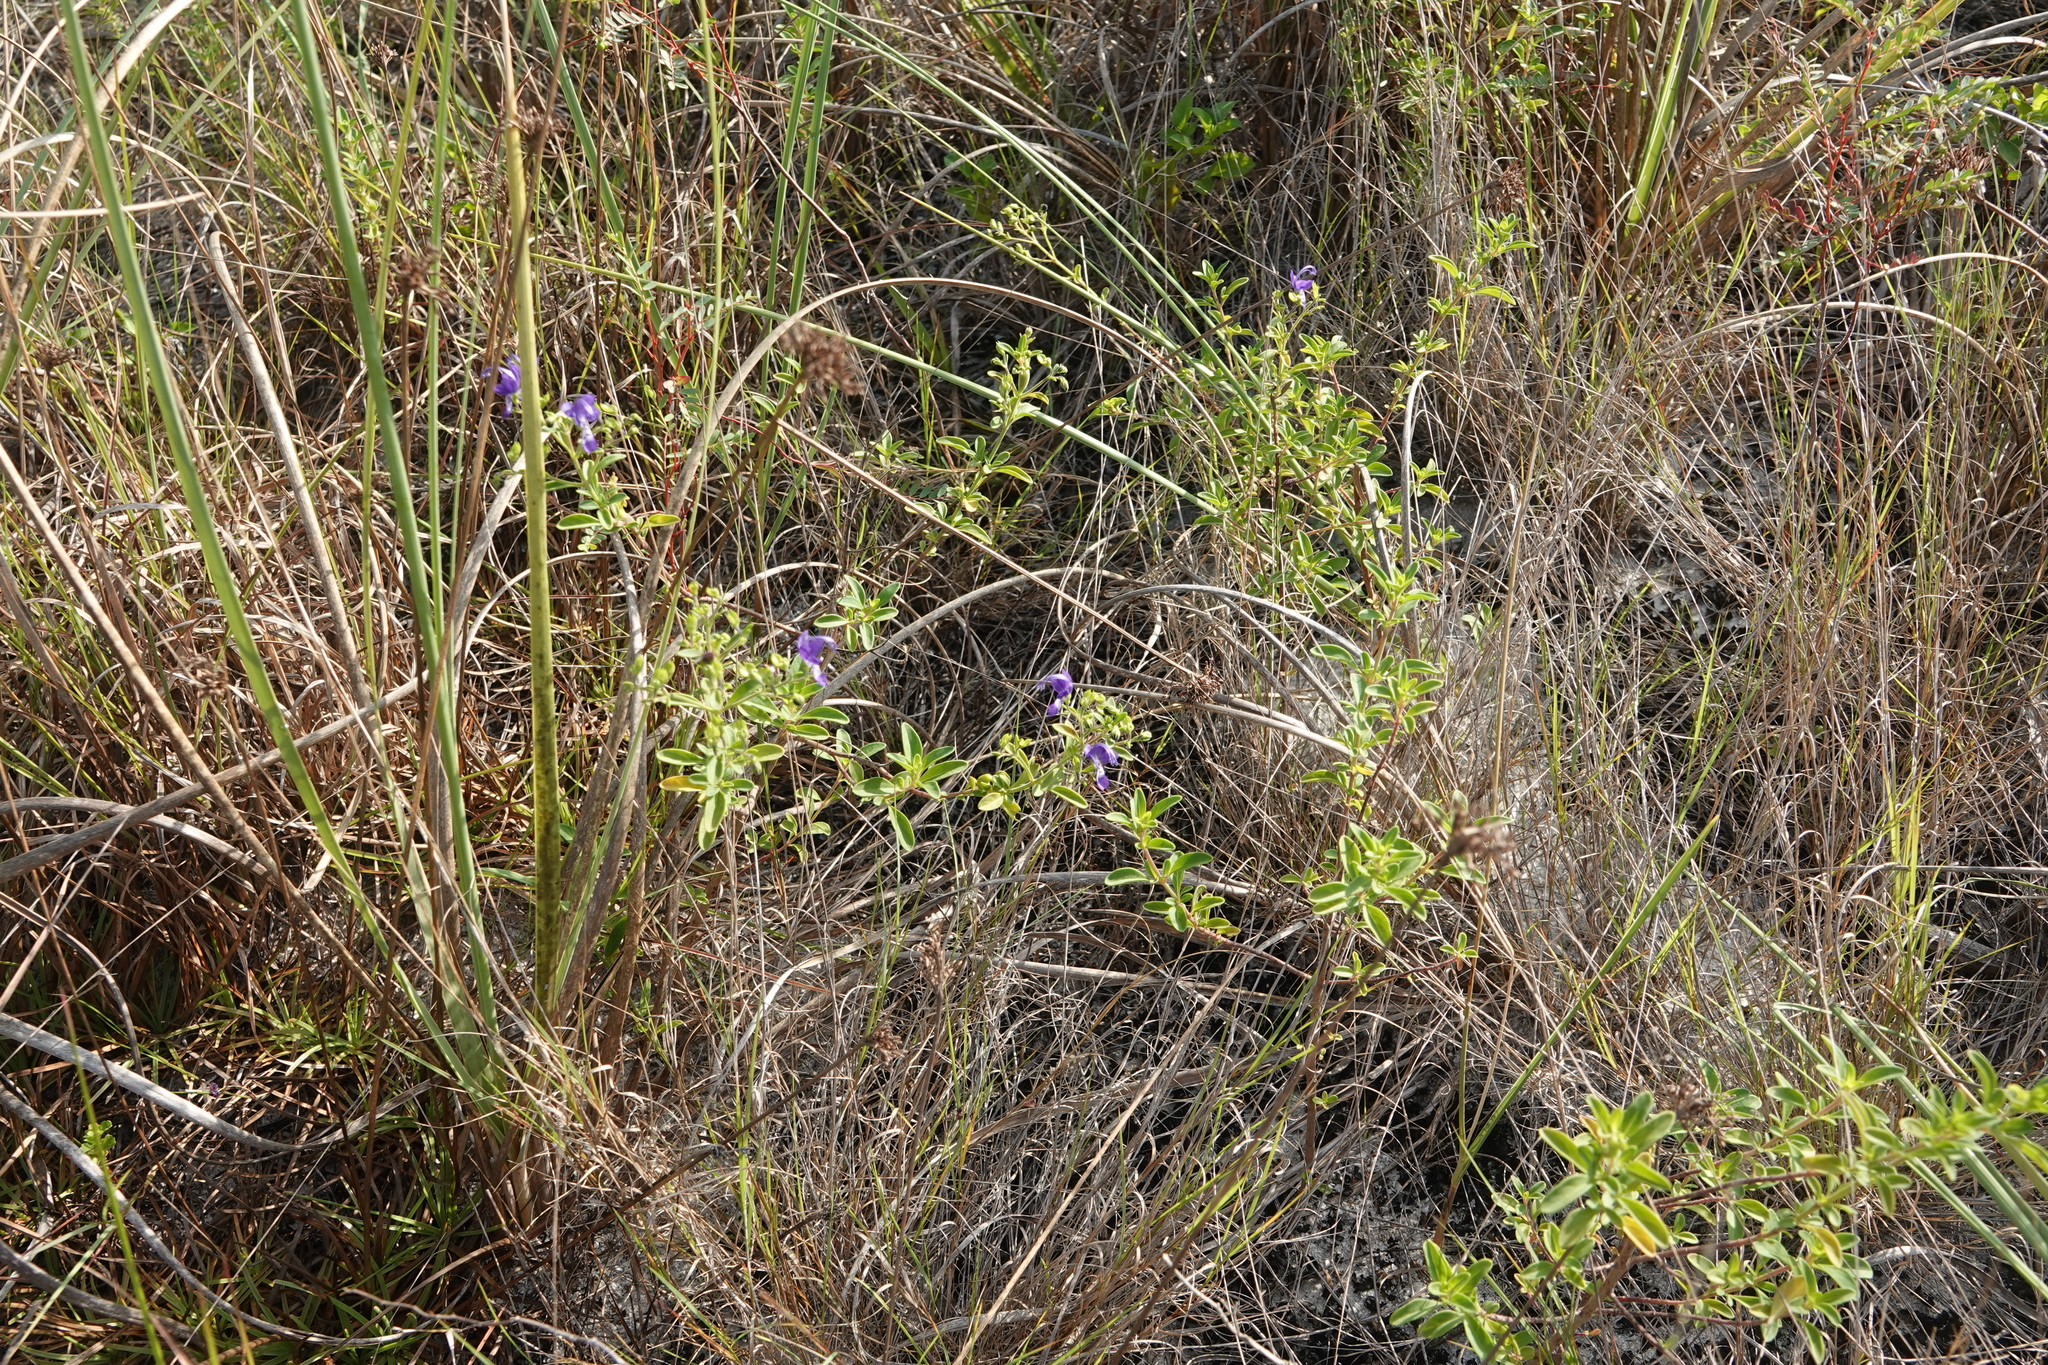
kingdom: Plantae
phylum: Tracheophyta
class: Magnoliopsida
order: Lamiales
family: Lamiaceae
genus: Trichostema
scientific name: Trichostema
